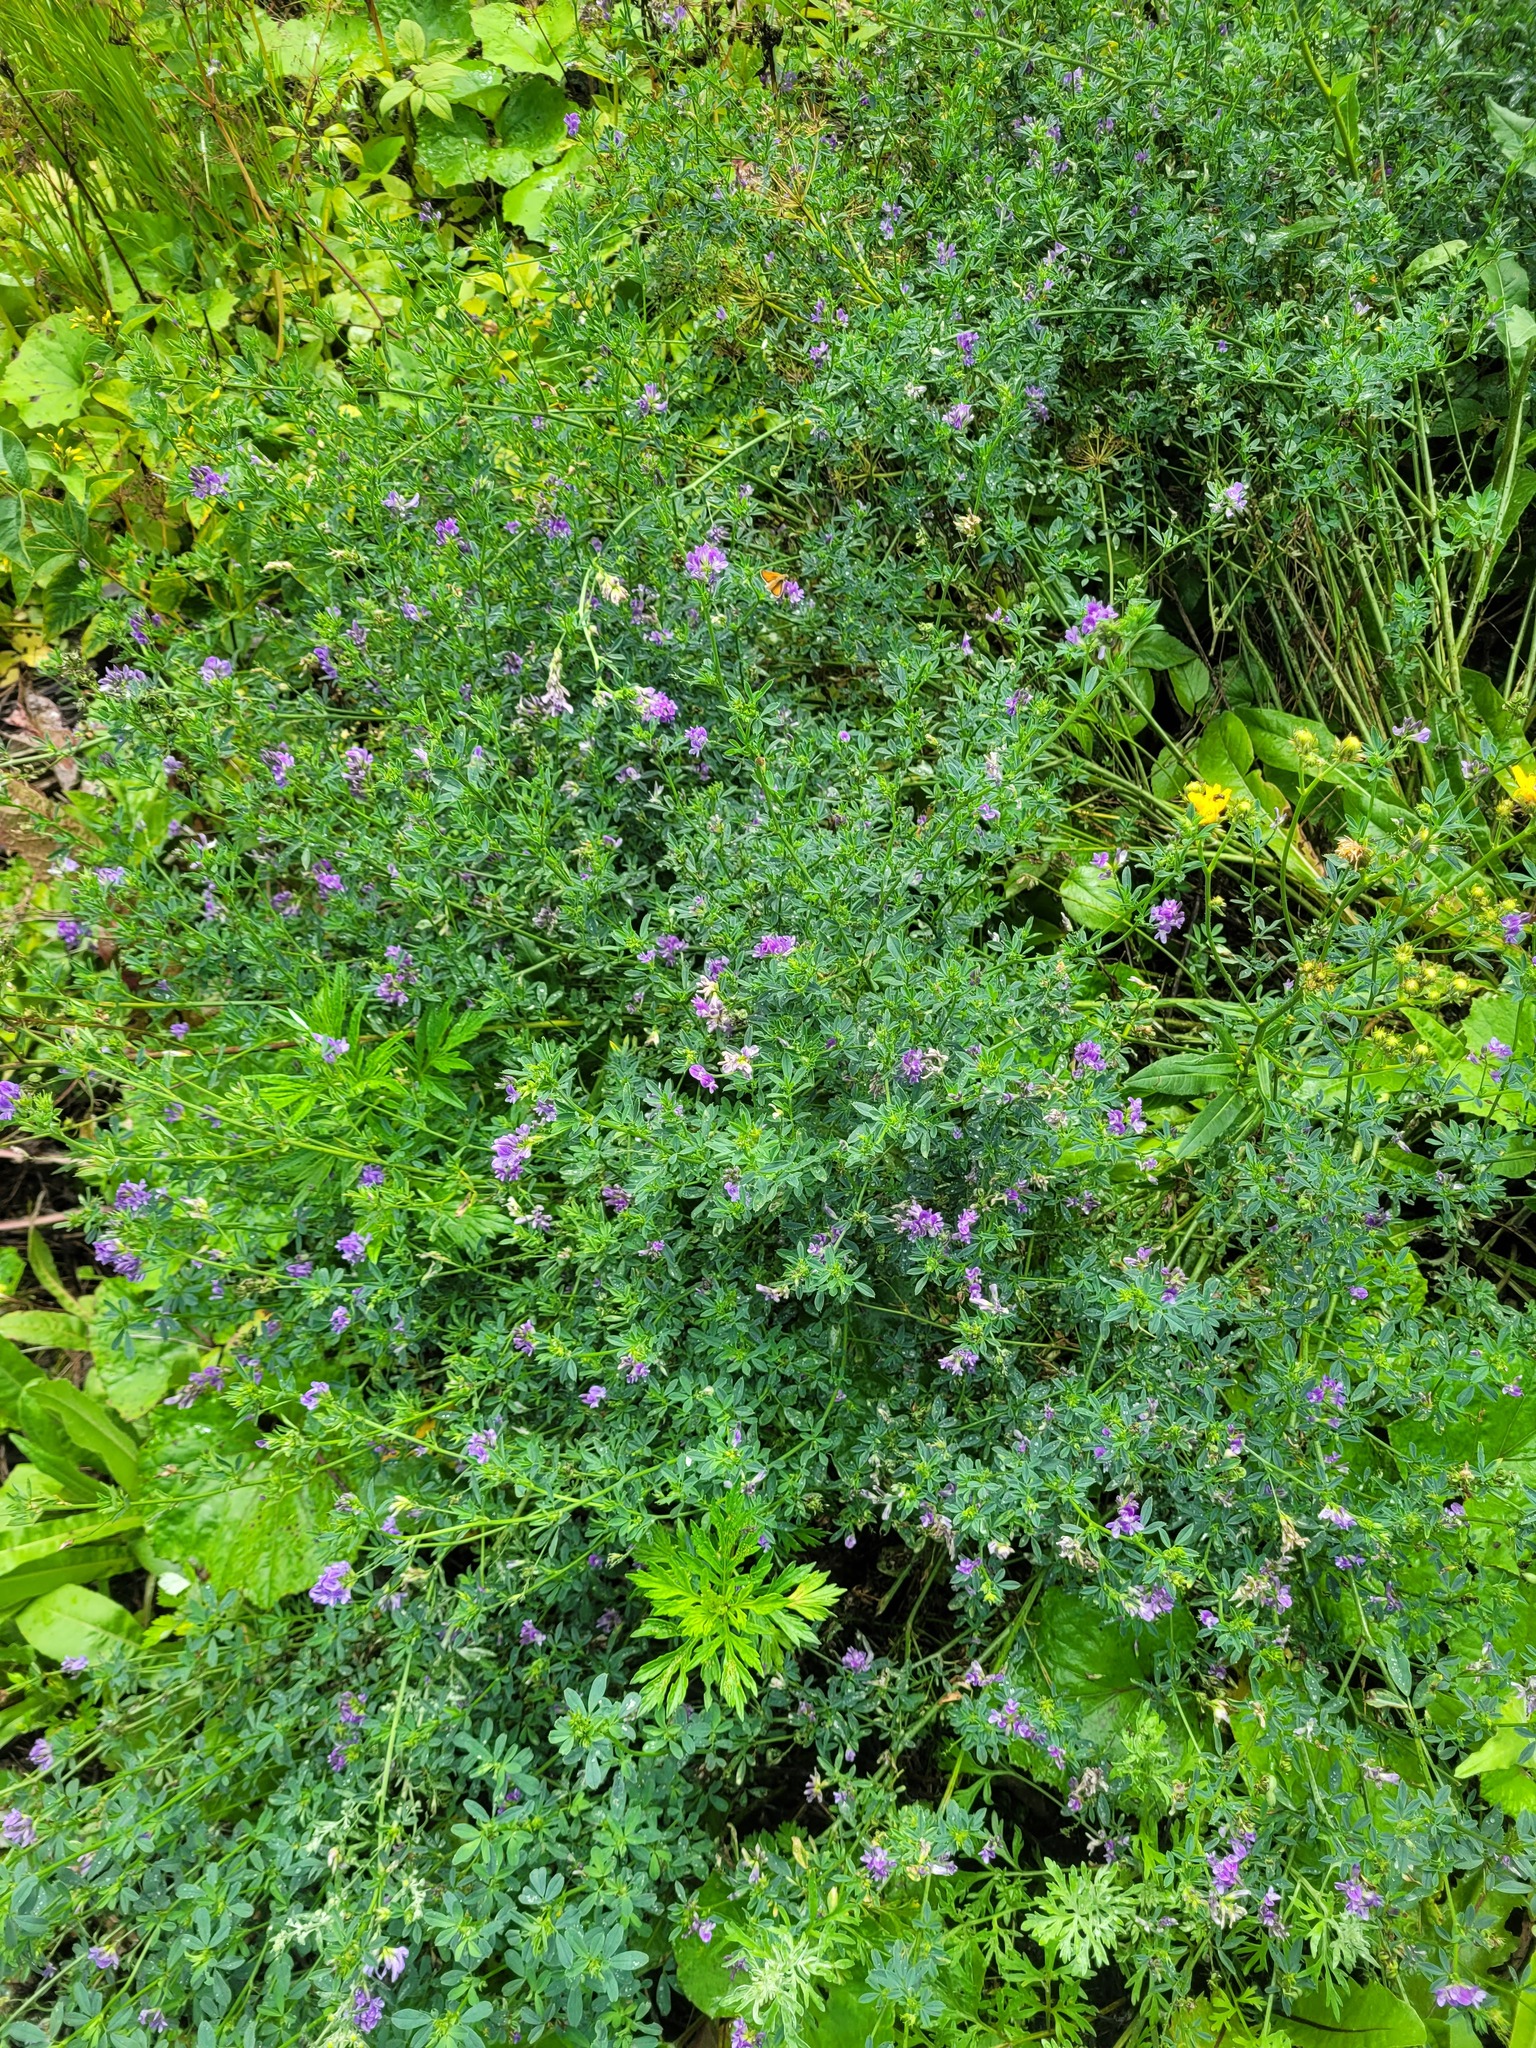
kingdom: Plantae
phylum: Tracheophyta
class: Magnoliopsida
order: Fabales
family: Fabaceae
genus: Medicago
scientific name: Medicago sativa
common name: Alfalfa
